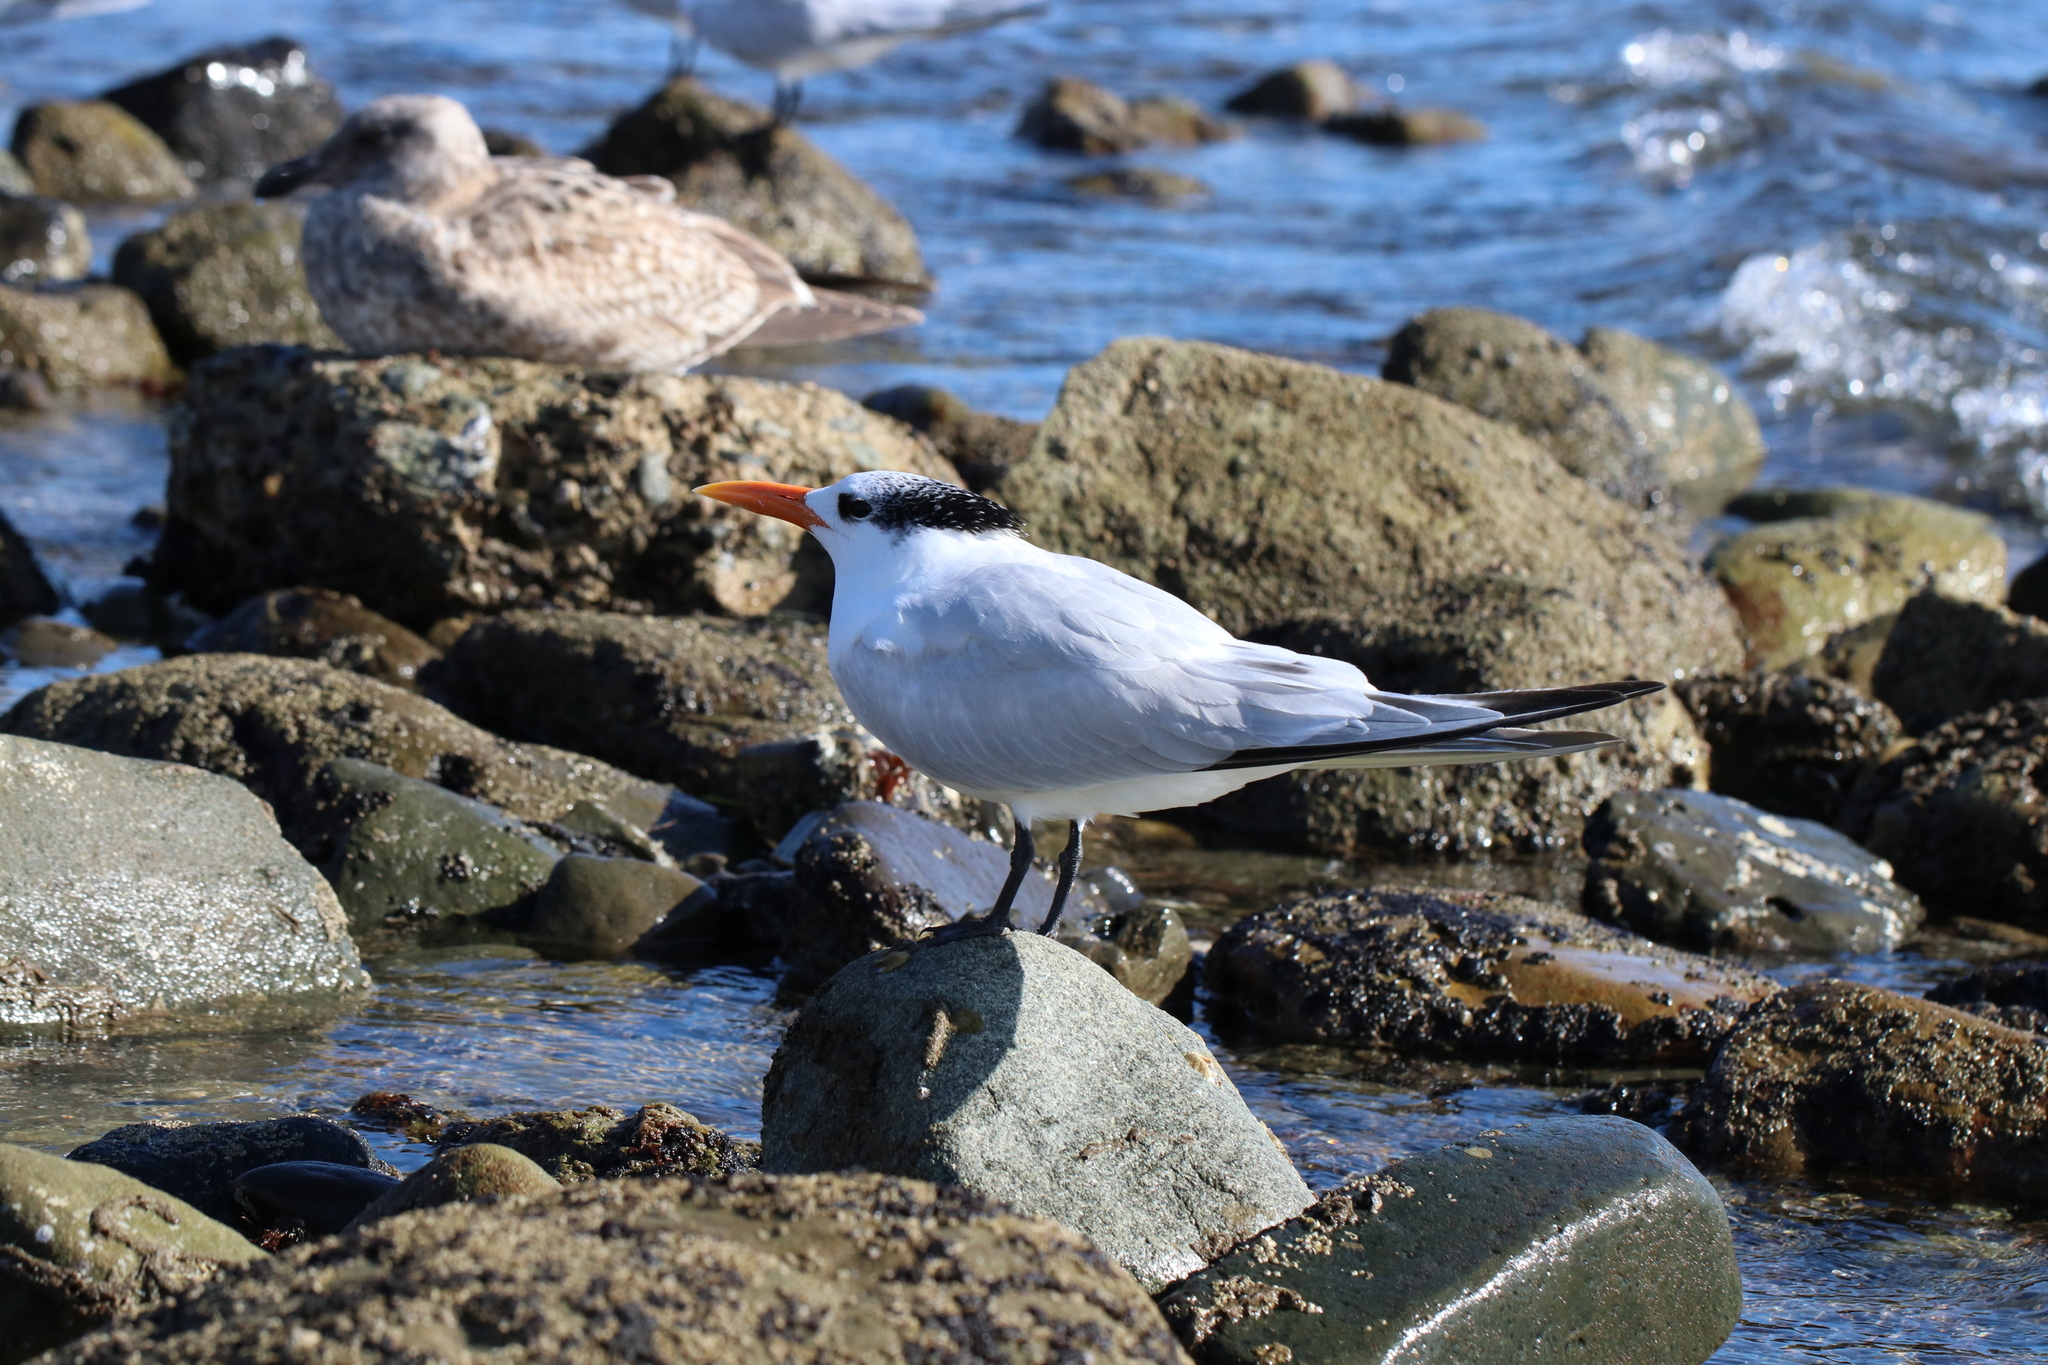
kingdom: Animalia
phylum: Chordata
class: Aves
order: Charadriiformes
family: Laridae
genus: Thalasseus
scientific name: Thalasseus maximus
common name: Royal tern
